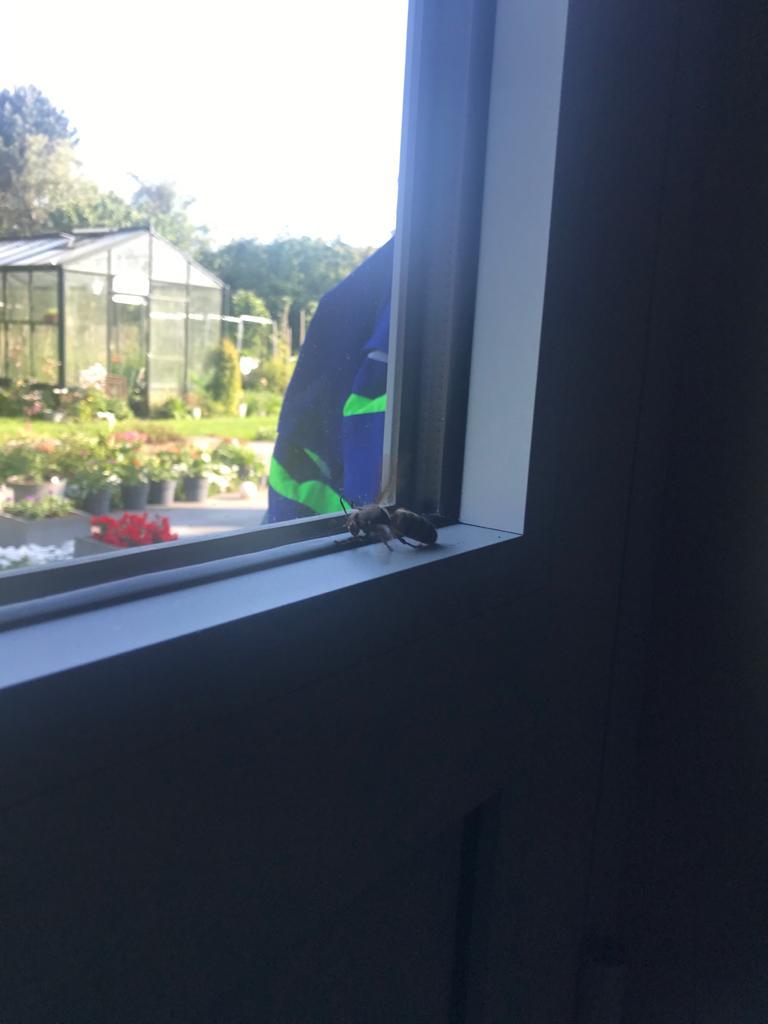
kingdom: Animalia
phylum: Arthropoda
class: Insecta
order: Hymenoptera
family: Vespidae
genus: Vespa
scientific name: Vespa crabro
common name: Hornet
